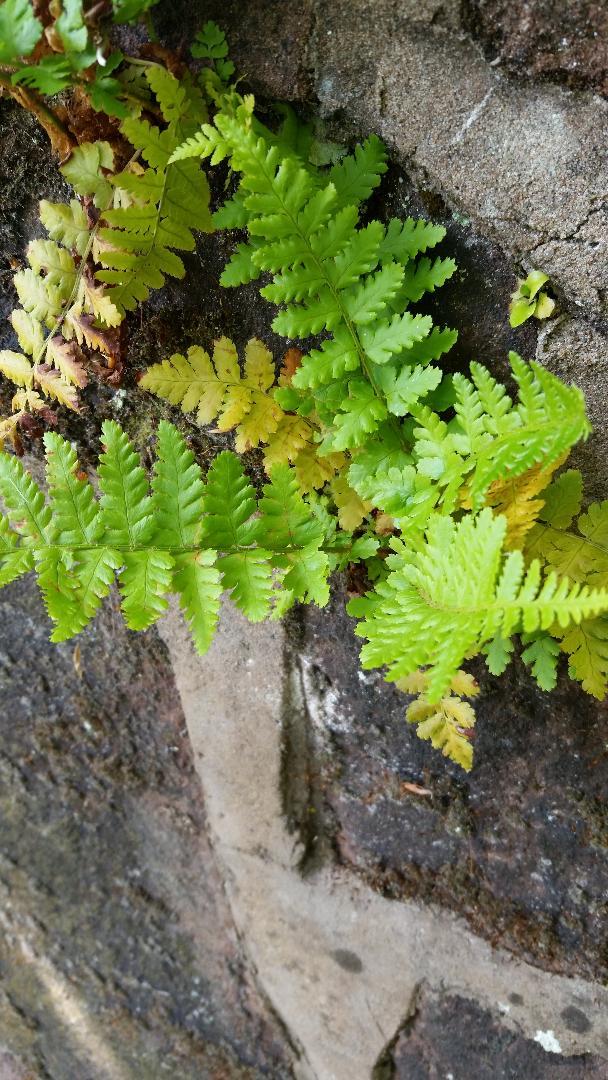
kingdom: Plantae
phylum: Tracheophyta
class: Polypodiopsida
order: Polypodiales
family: Dryopteridaceae
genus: Dryopteris
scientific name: Dryopteris filix-mas
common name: Male fern
